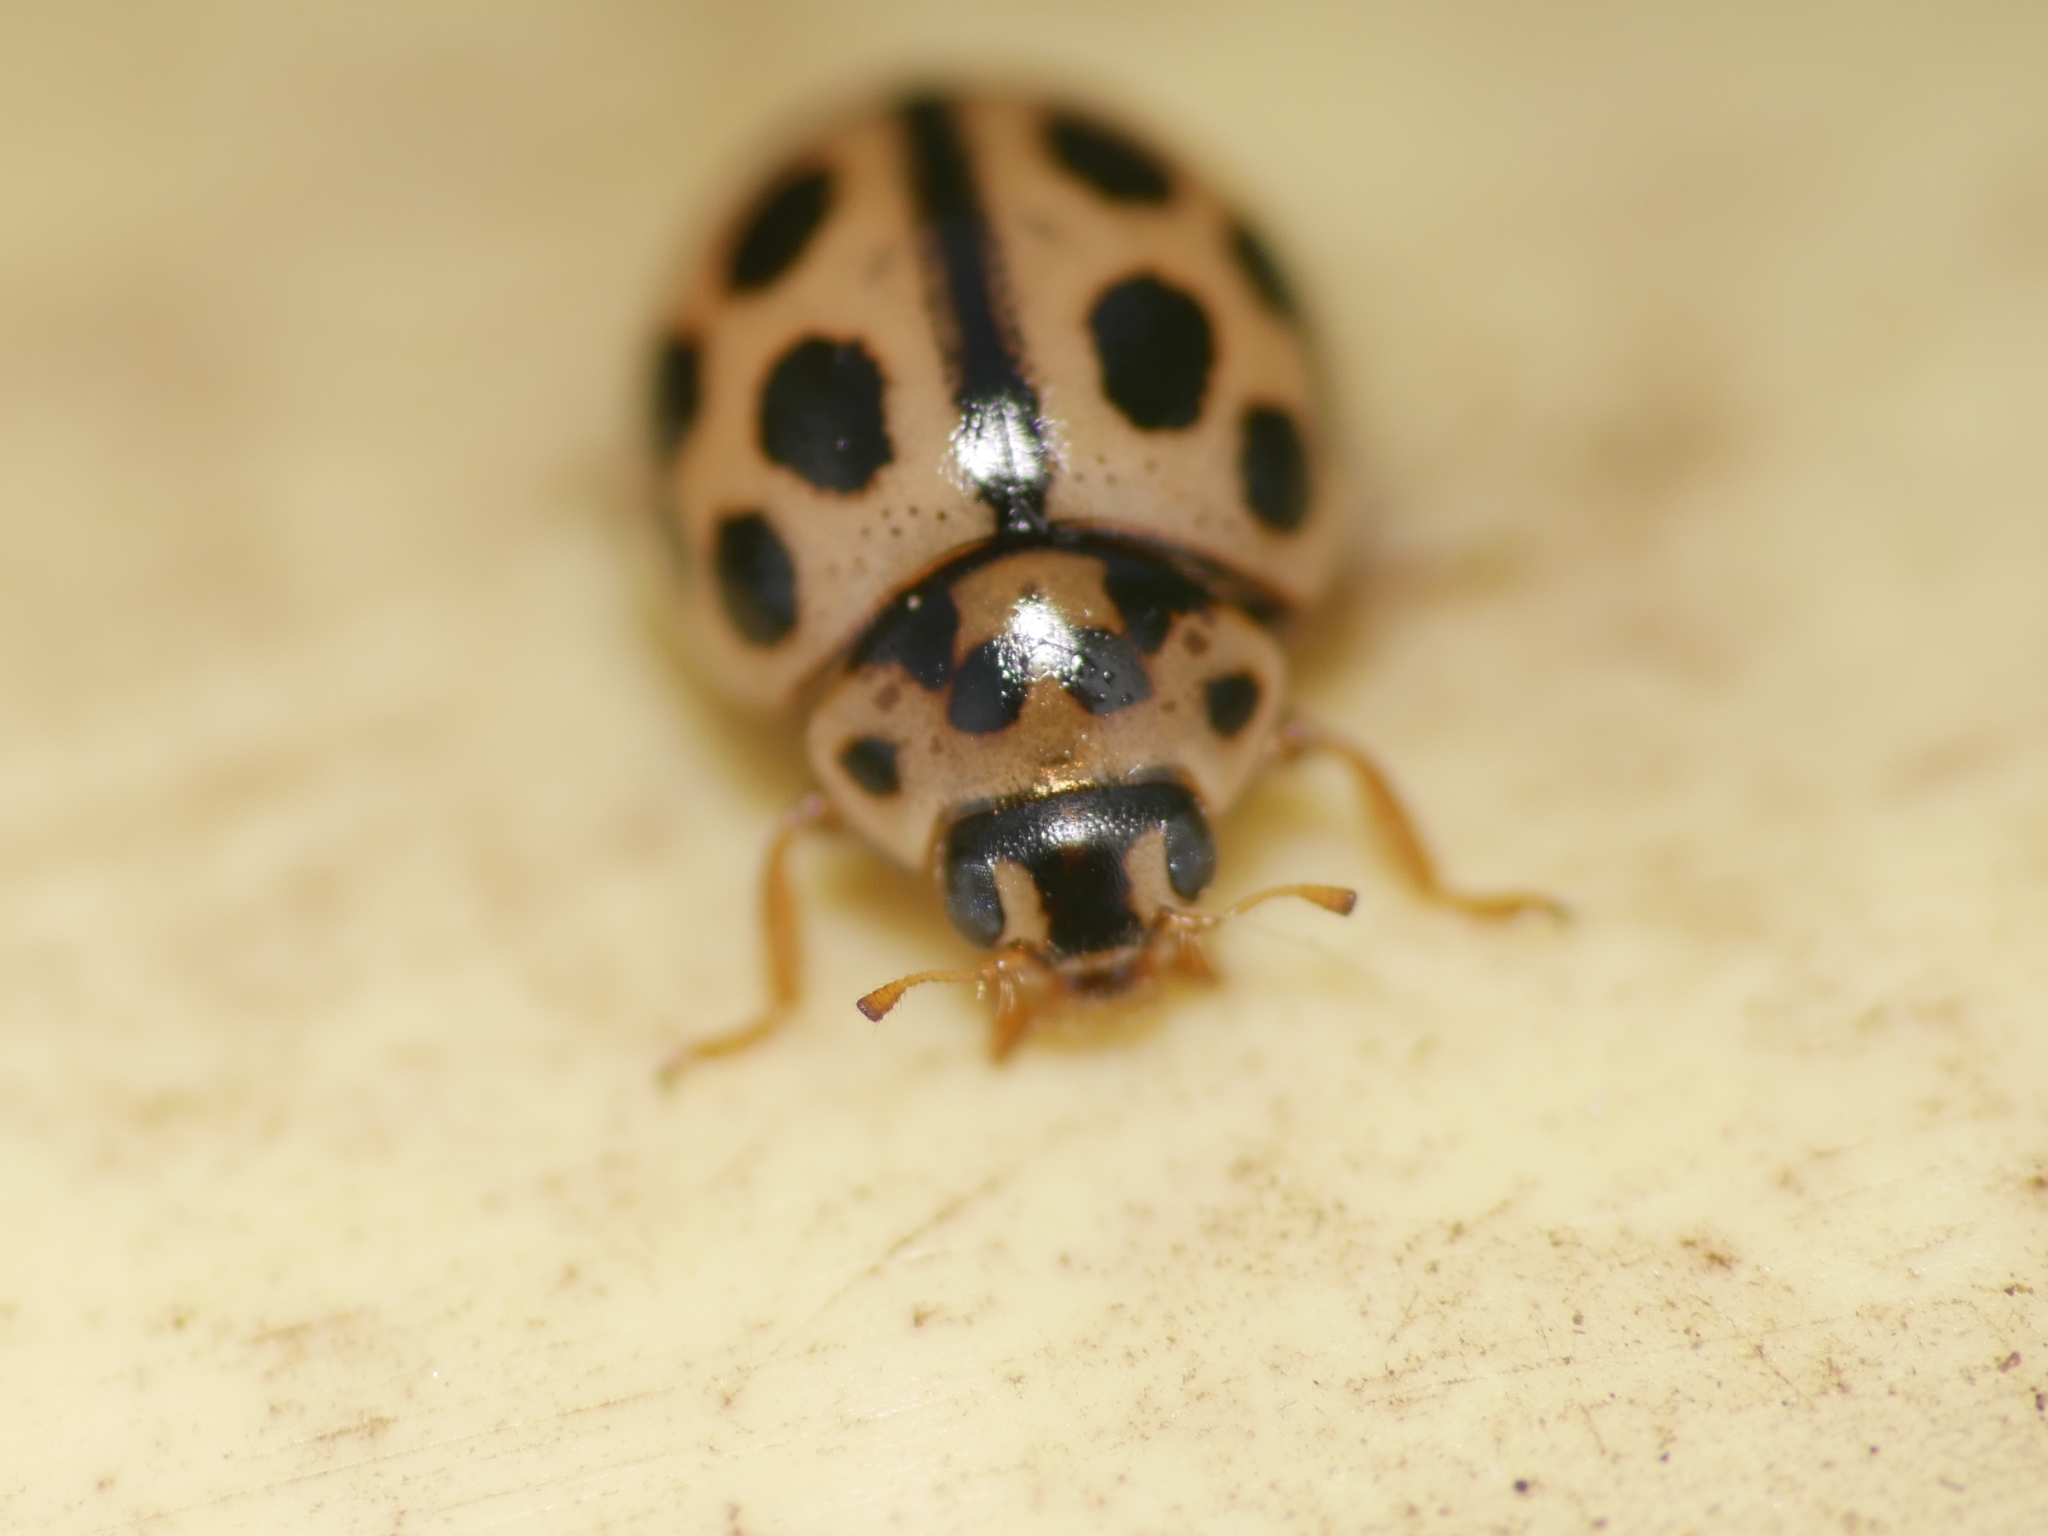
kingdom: Animalia
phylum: Arthropoda
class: Insecta
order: Coleoptera
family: Coccinellidae
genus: Tytthaspis
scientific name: Tytthaspis sedecimpunctata
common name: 16-spot ladybird
